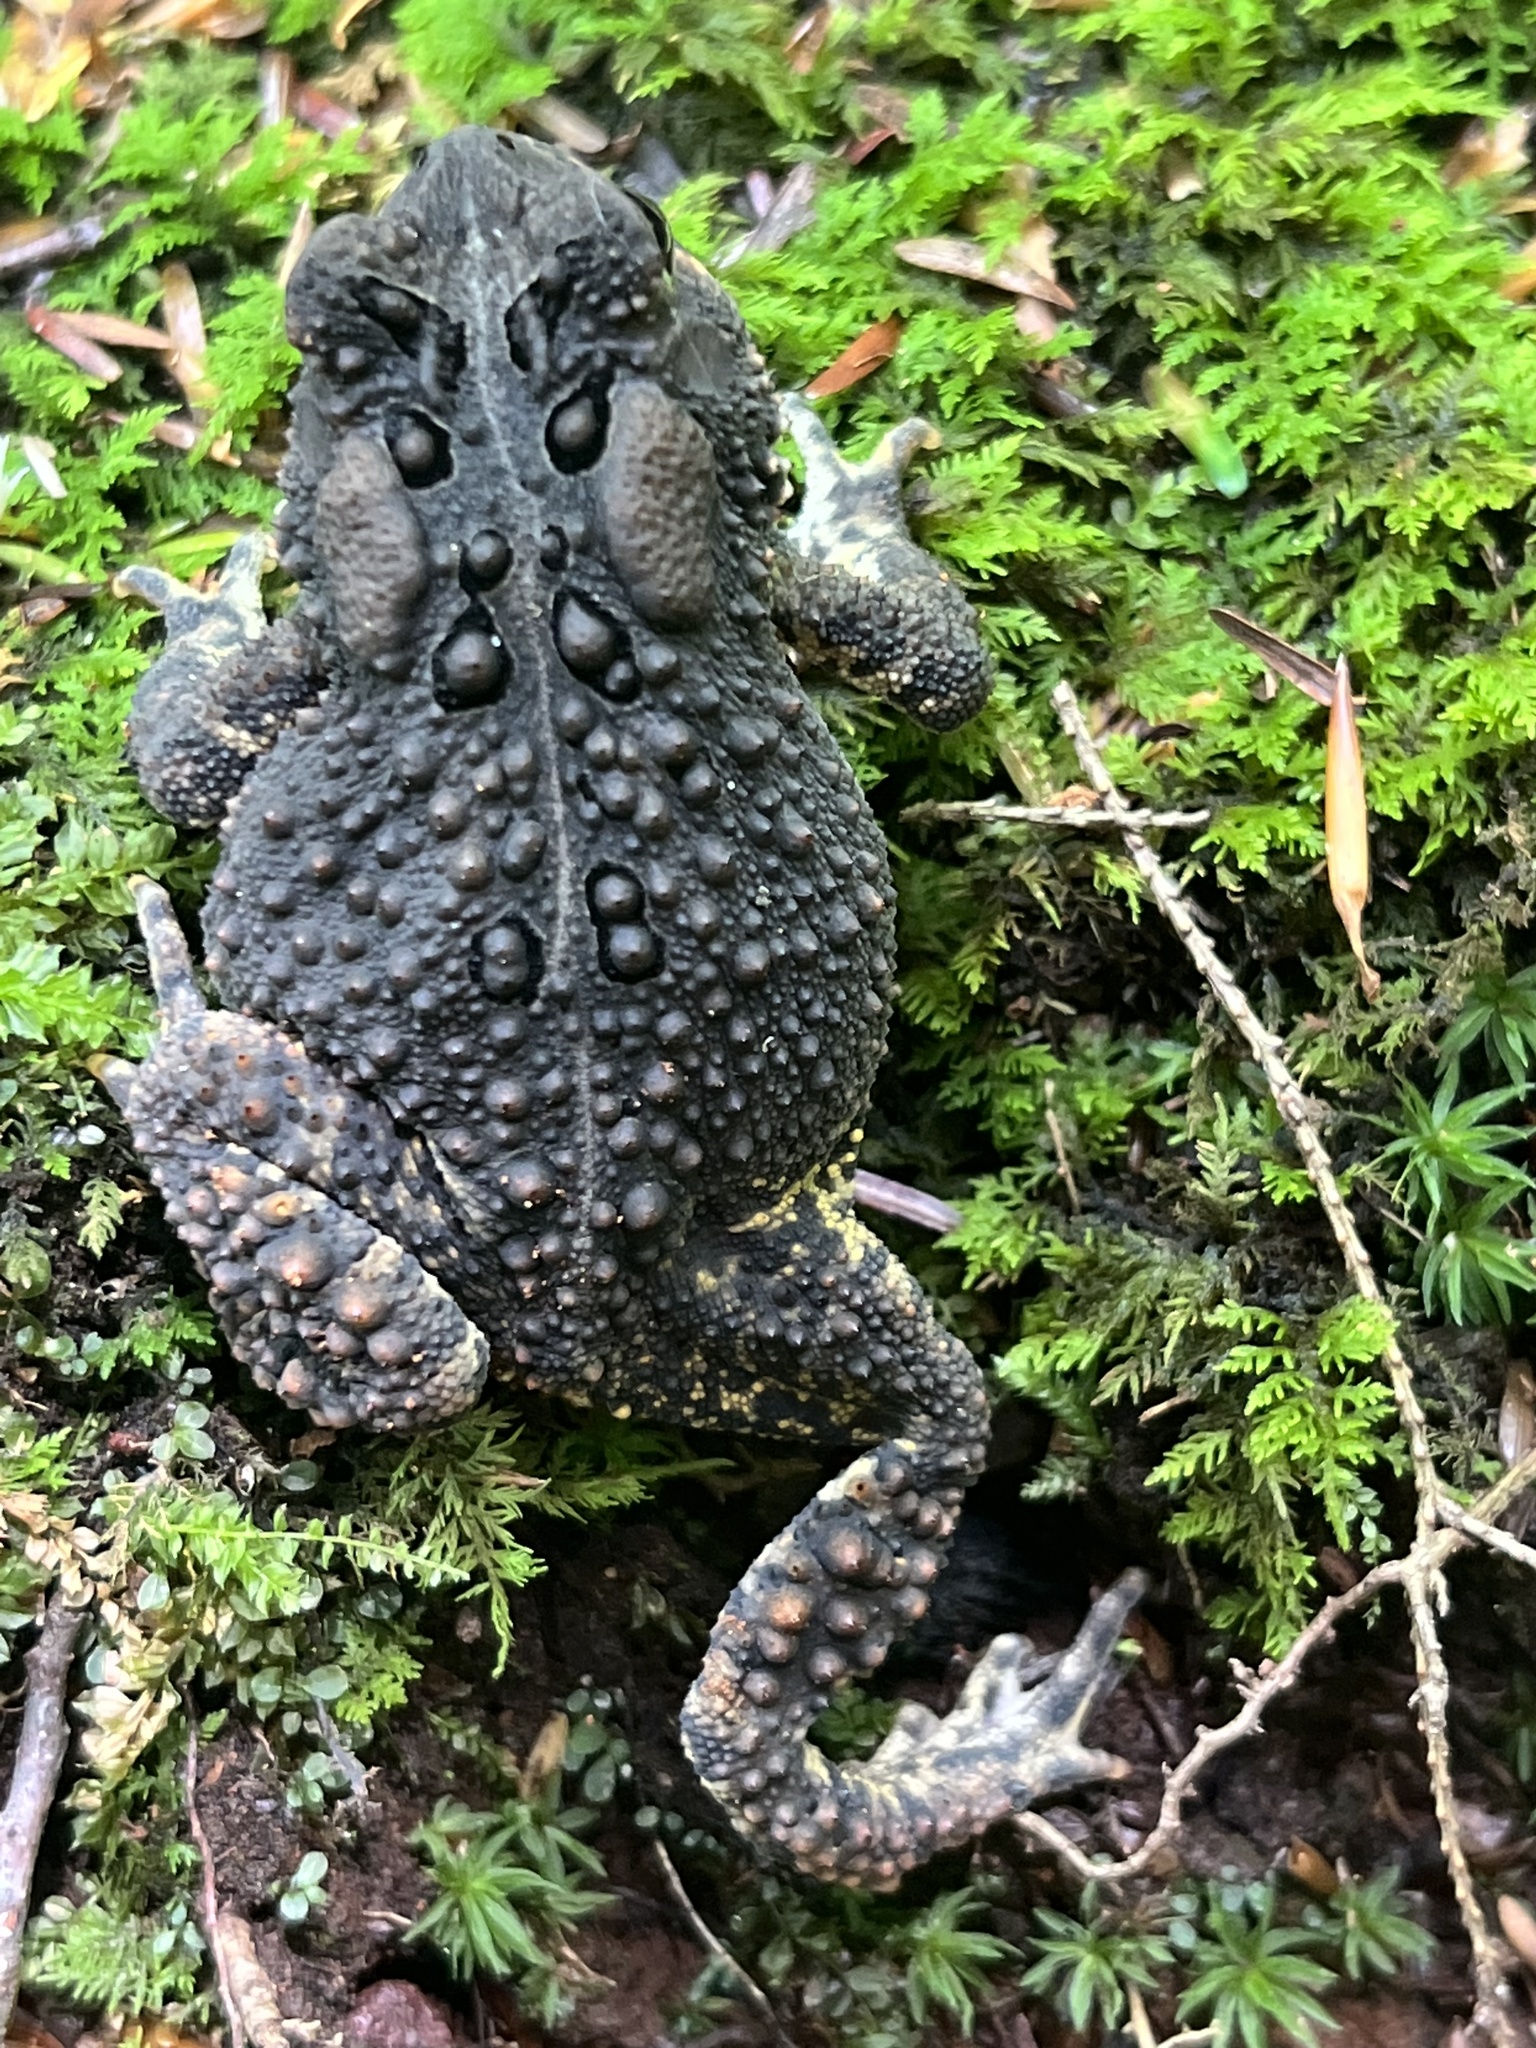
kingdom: Animalia
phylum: Chordata
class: Amphibia
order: Anura
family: Bufonidae
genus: Anaxyrus
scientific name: Anaxyrus americanus
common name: American toad
